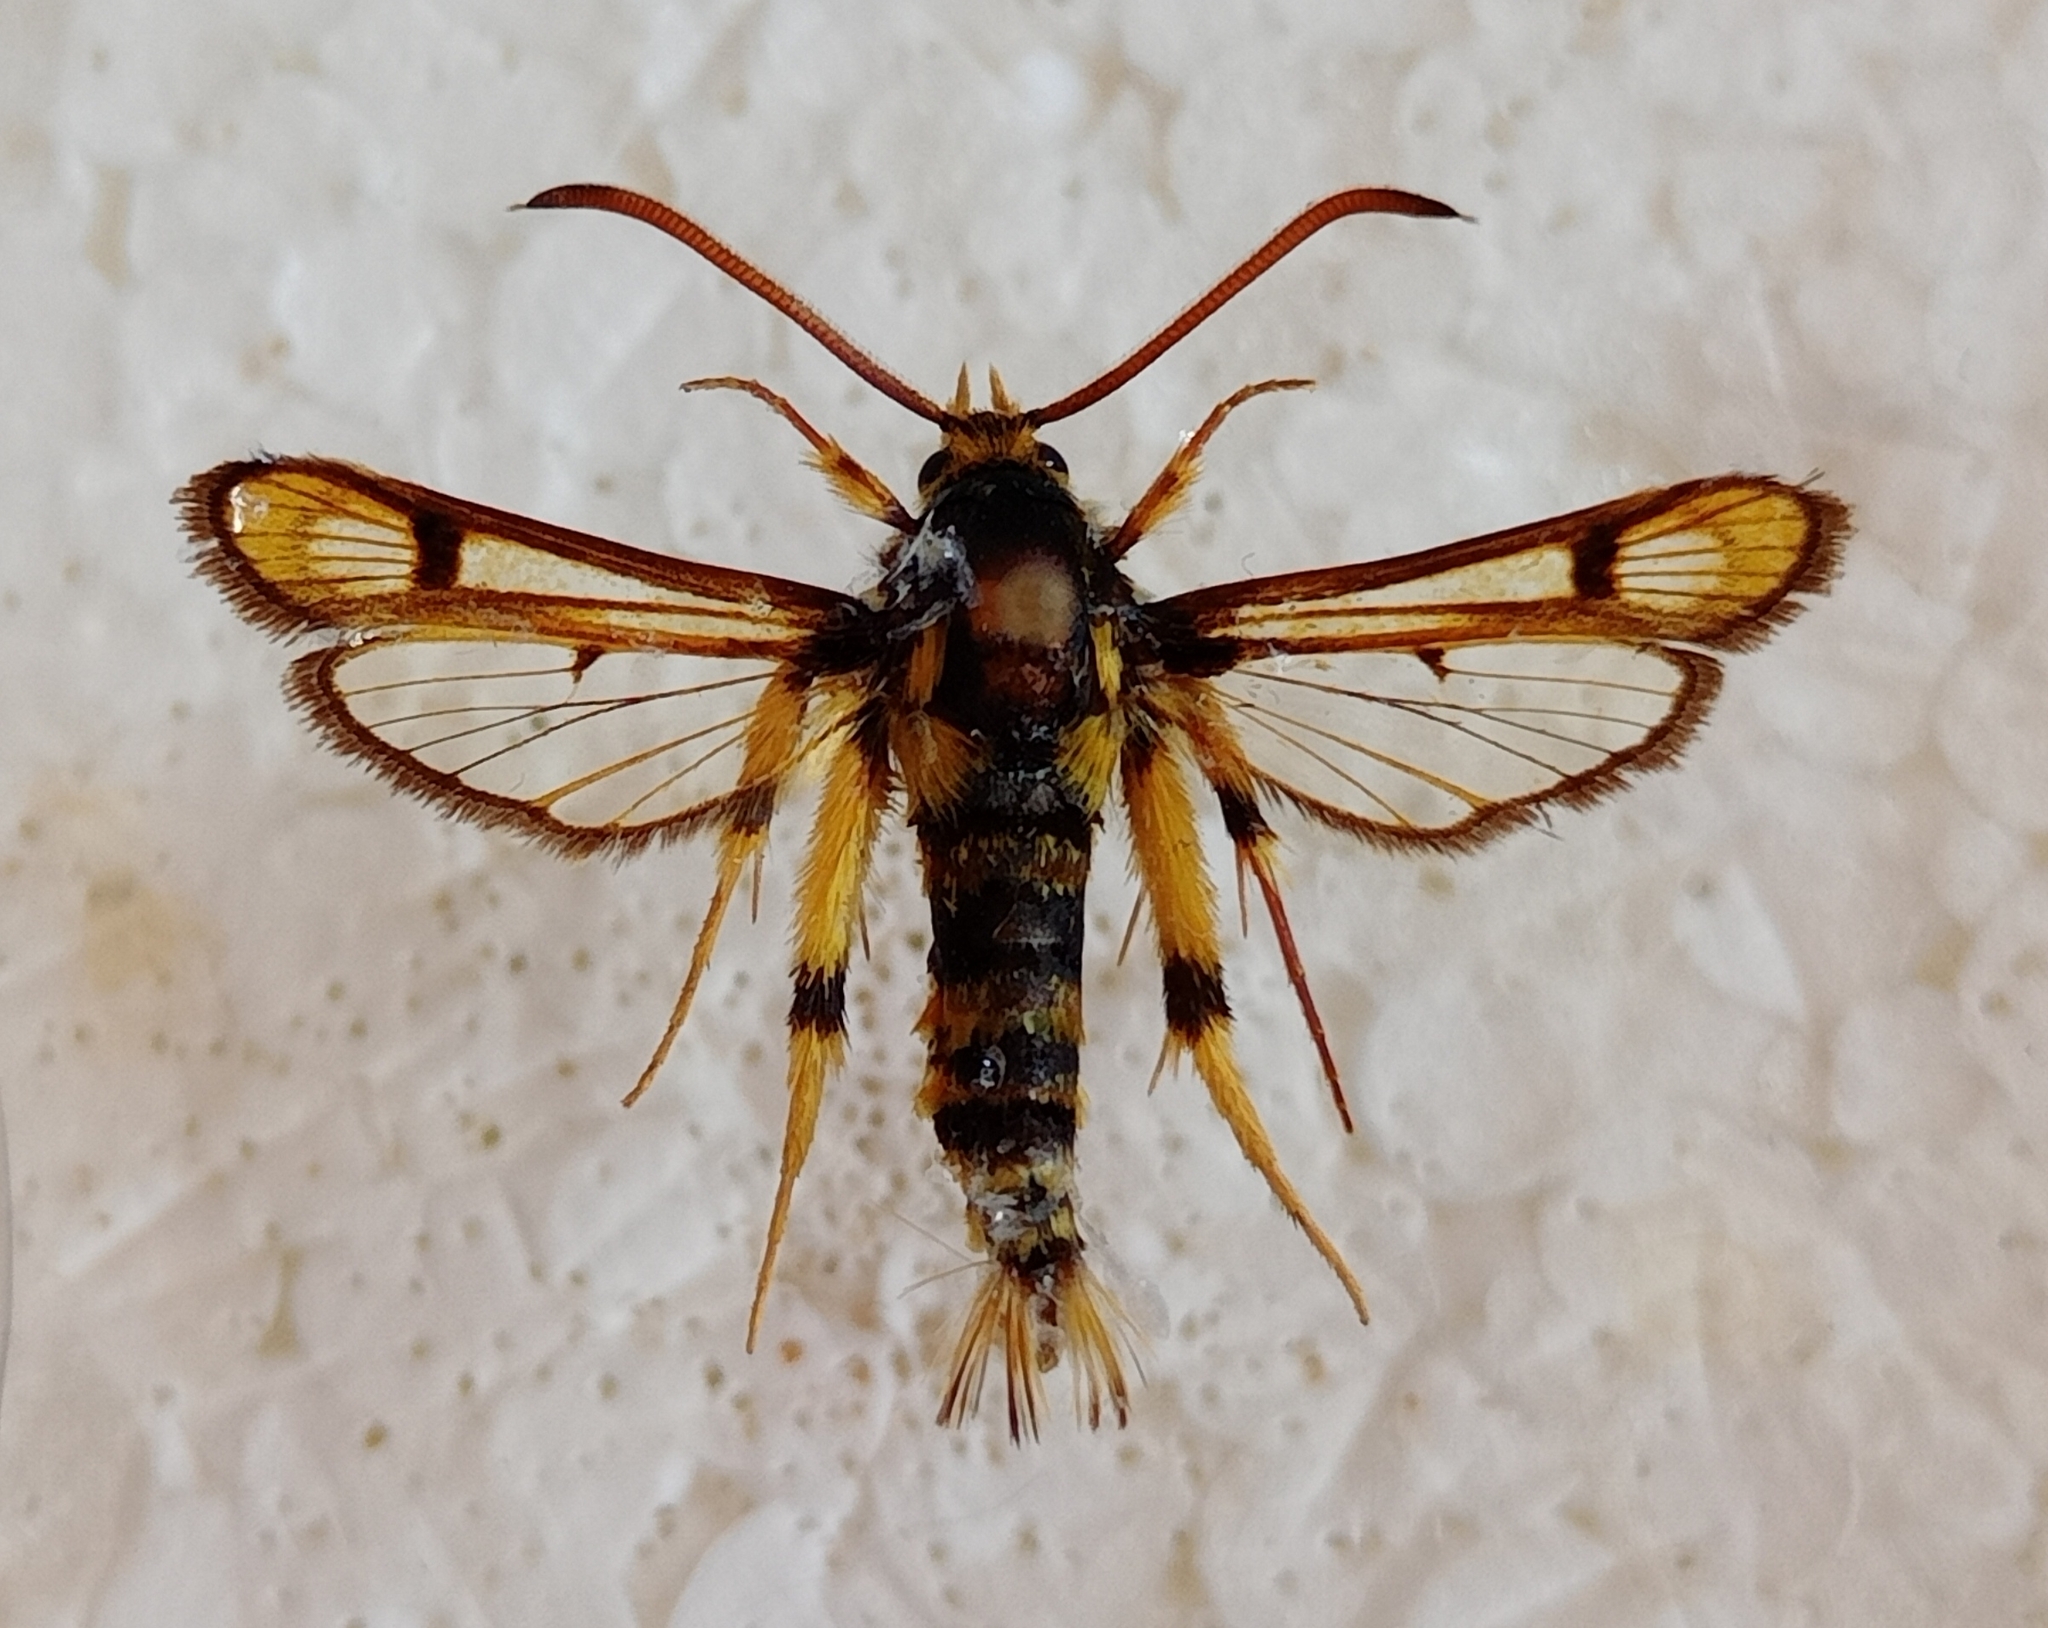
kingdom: Animalia
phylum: Arthropoda
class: Insecta
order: Lepidoptera
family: Sesiidae
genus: Chamaesphecia
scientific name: Chamaesphecia masariformis
